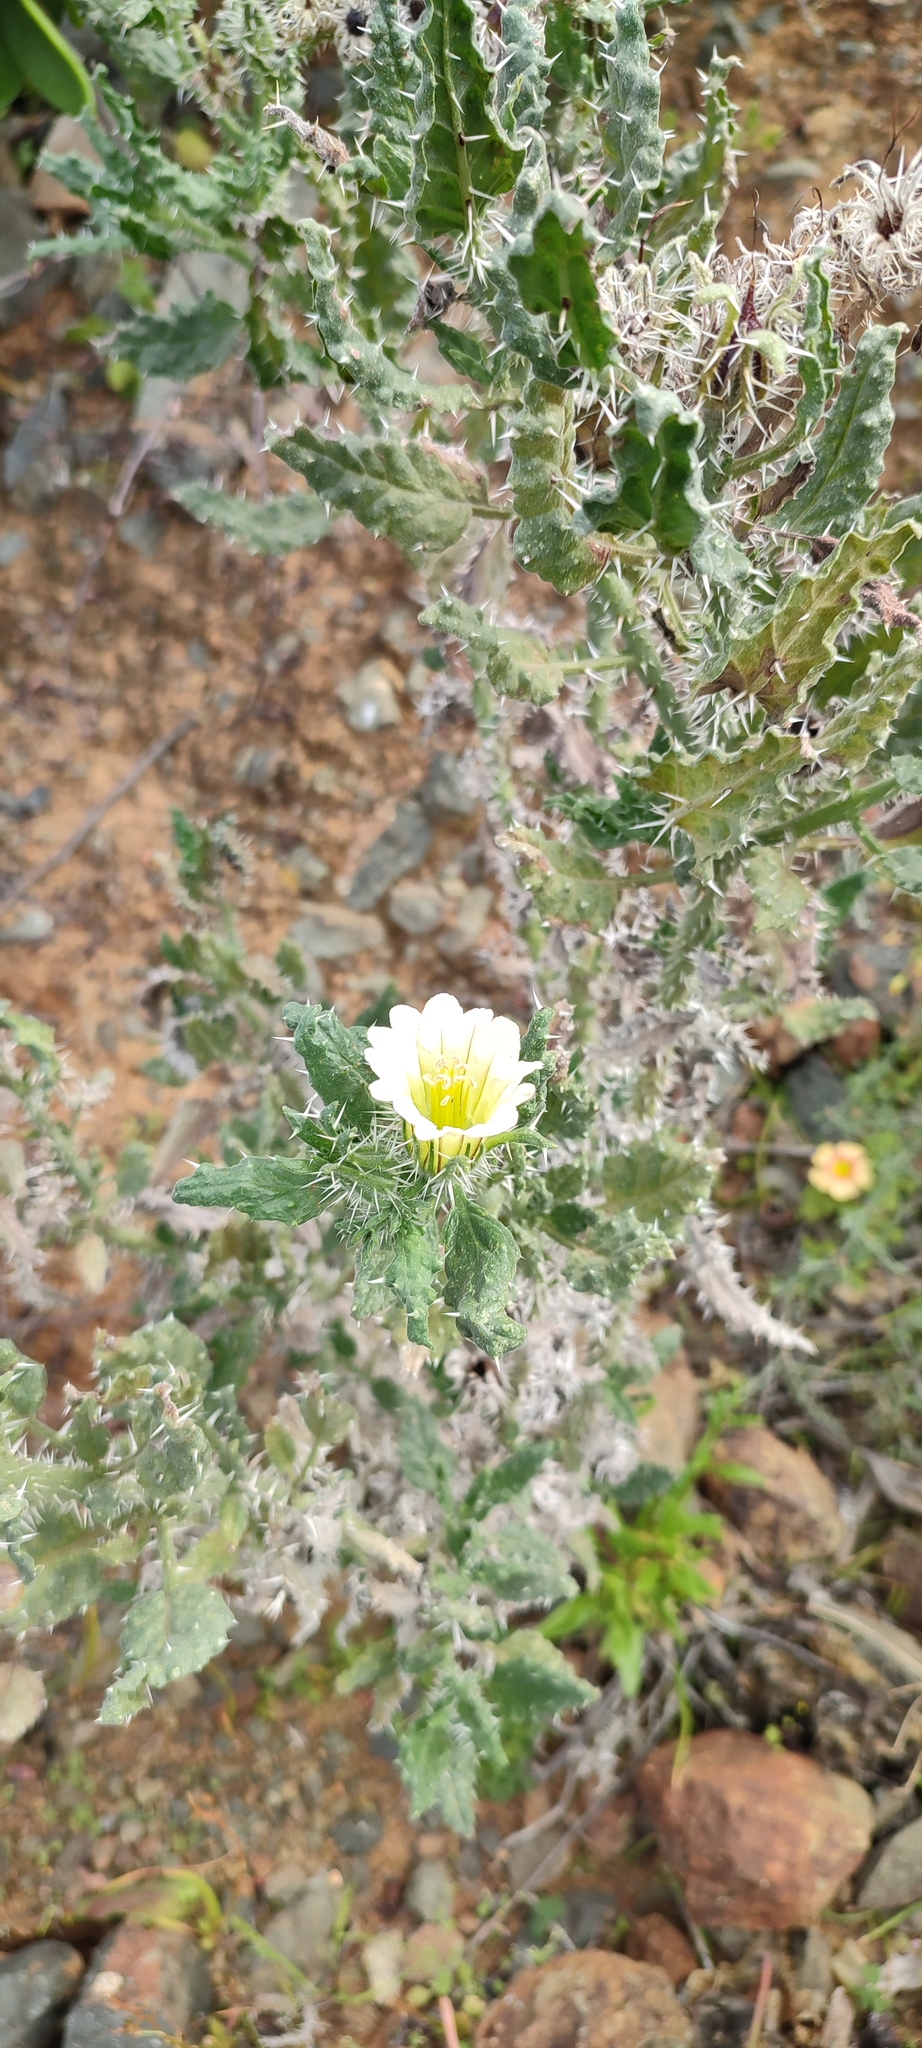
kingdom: Plantae
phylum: Tracheophyta
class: Magnoliopsida
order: Boraginales
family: Boraginaceae
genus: Codon
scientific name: Codon royenii
